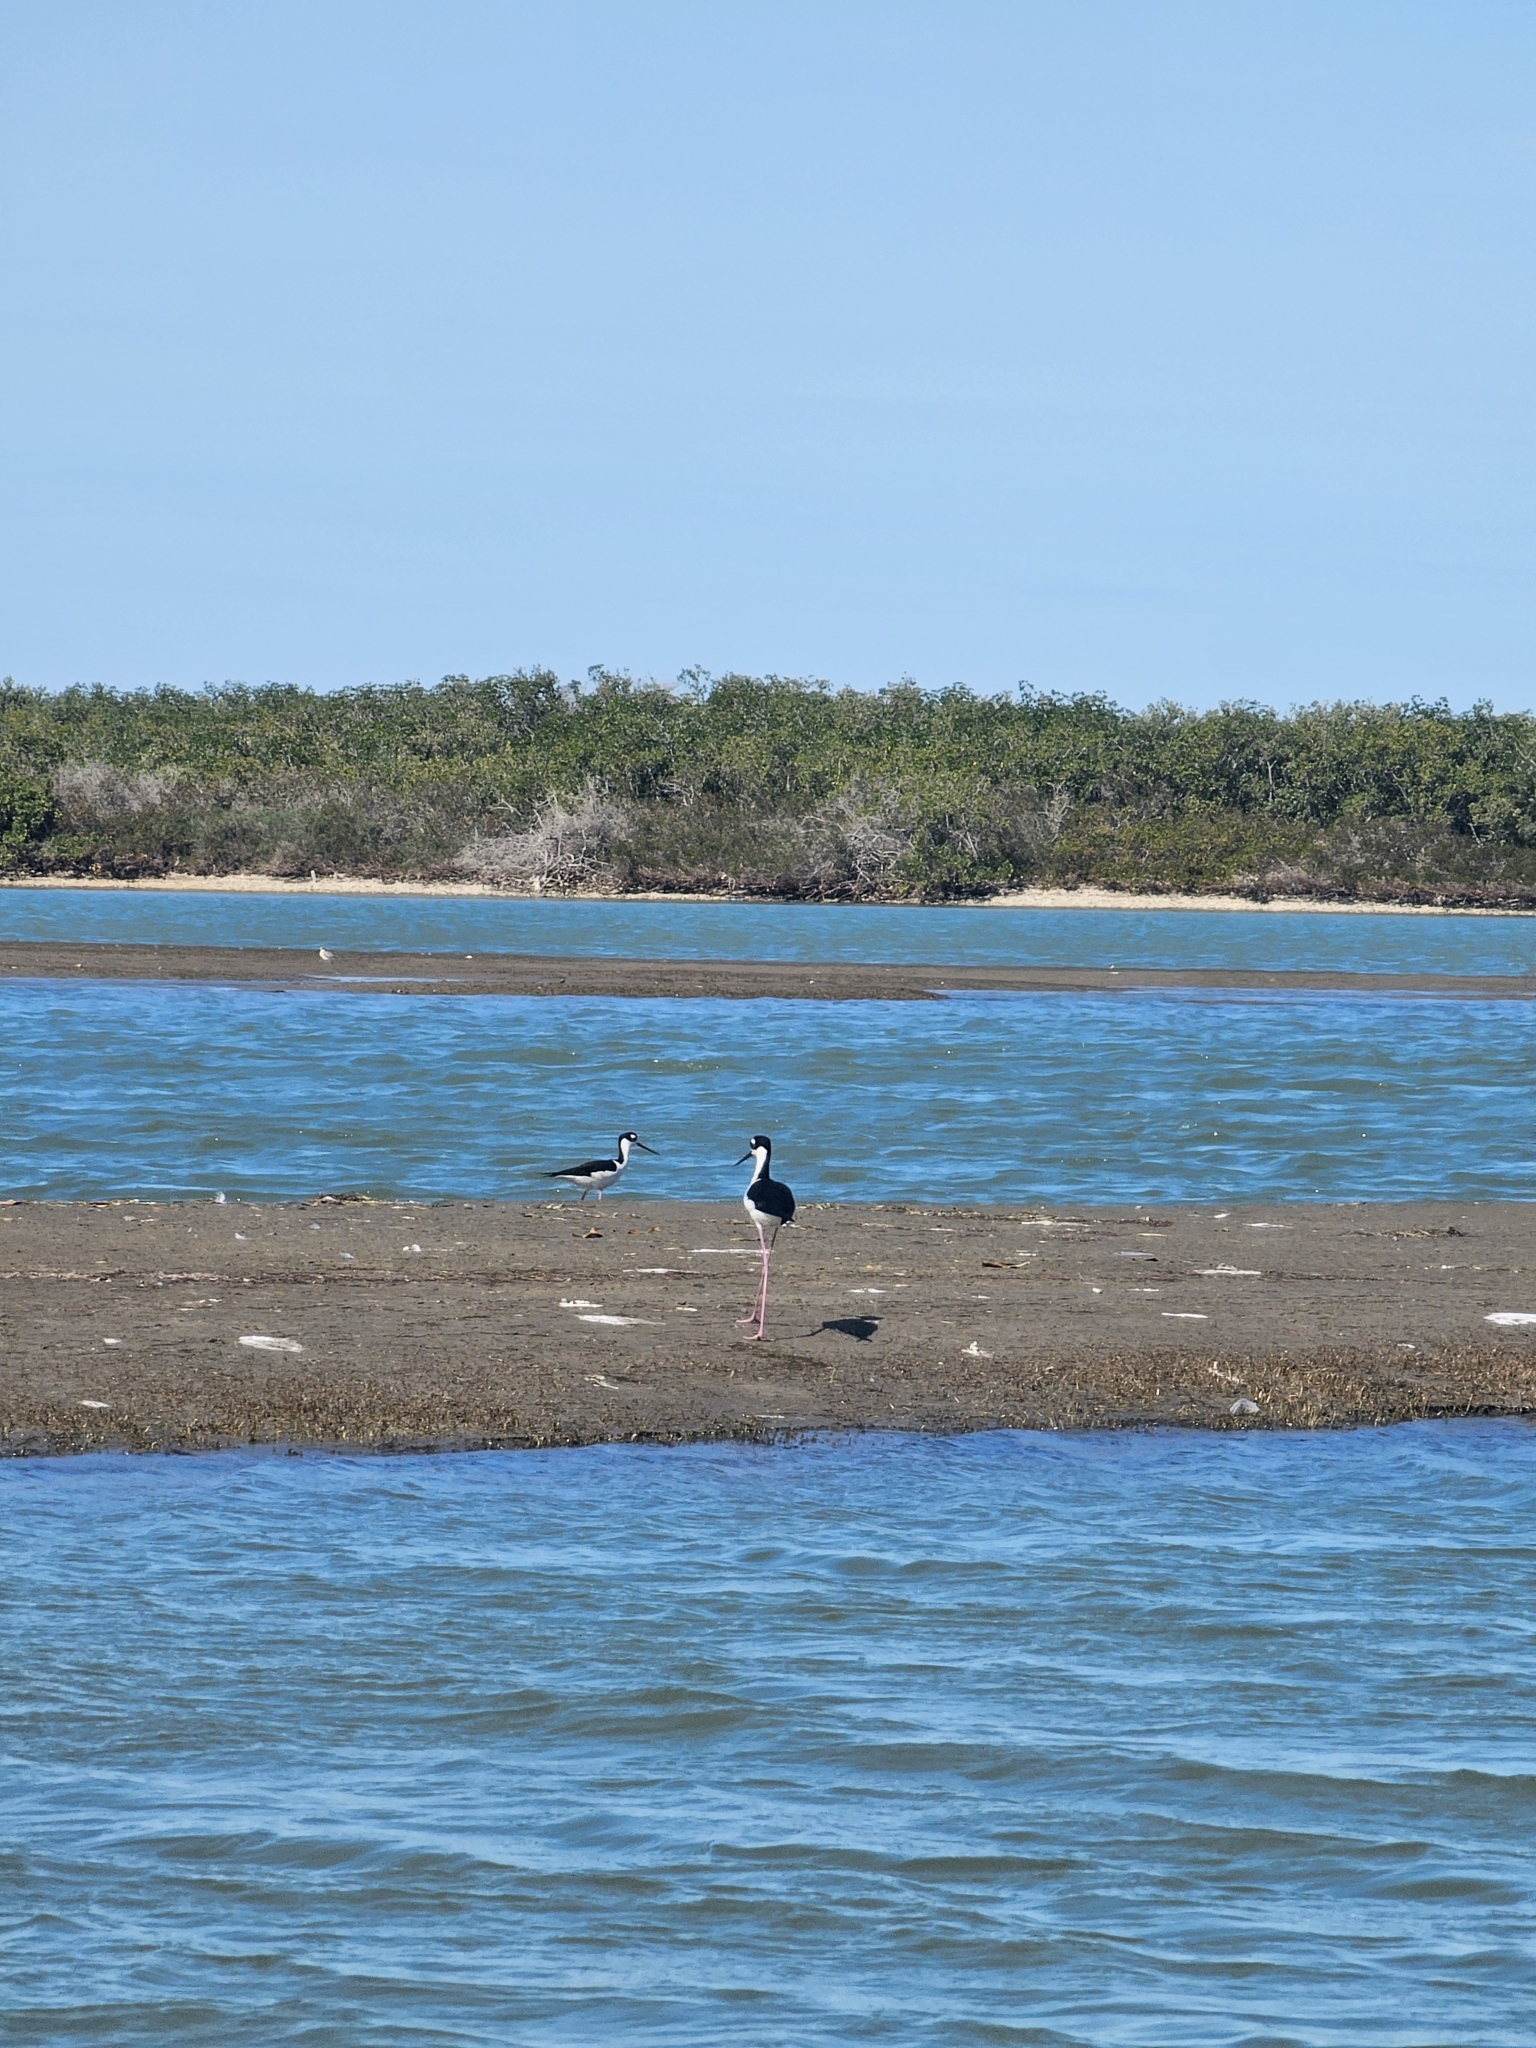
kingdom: Animalia
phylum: Chordata
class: Aves
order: Charadriiformes
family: Recurvirostridae
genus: Himantopus
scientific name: Himantopus mexicanus
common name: Black-necked stilt
